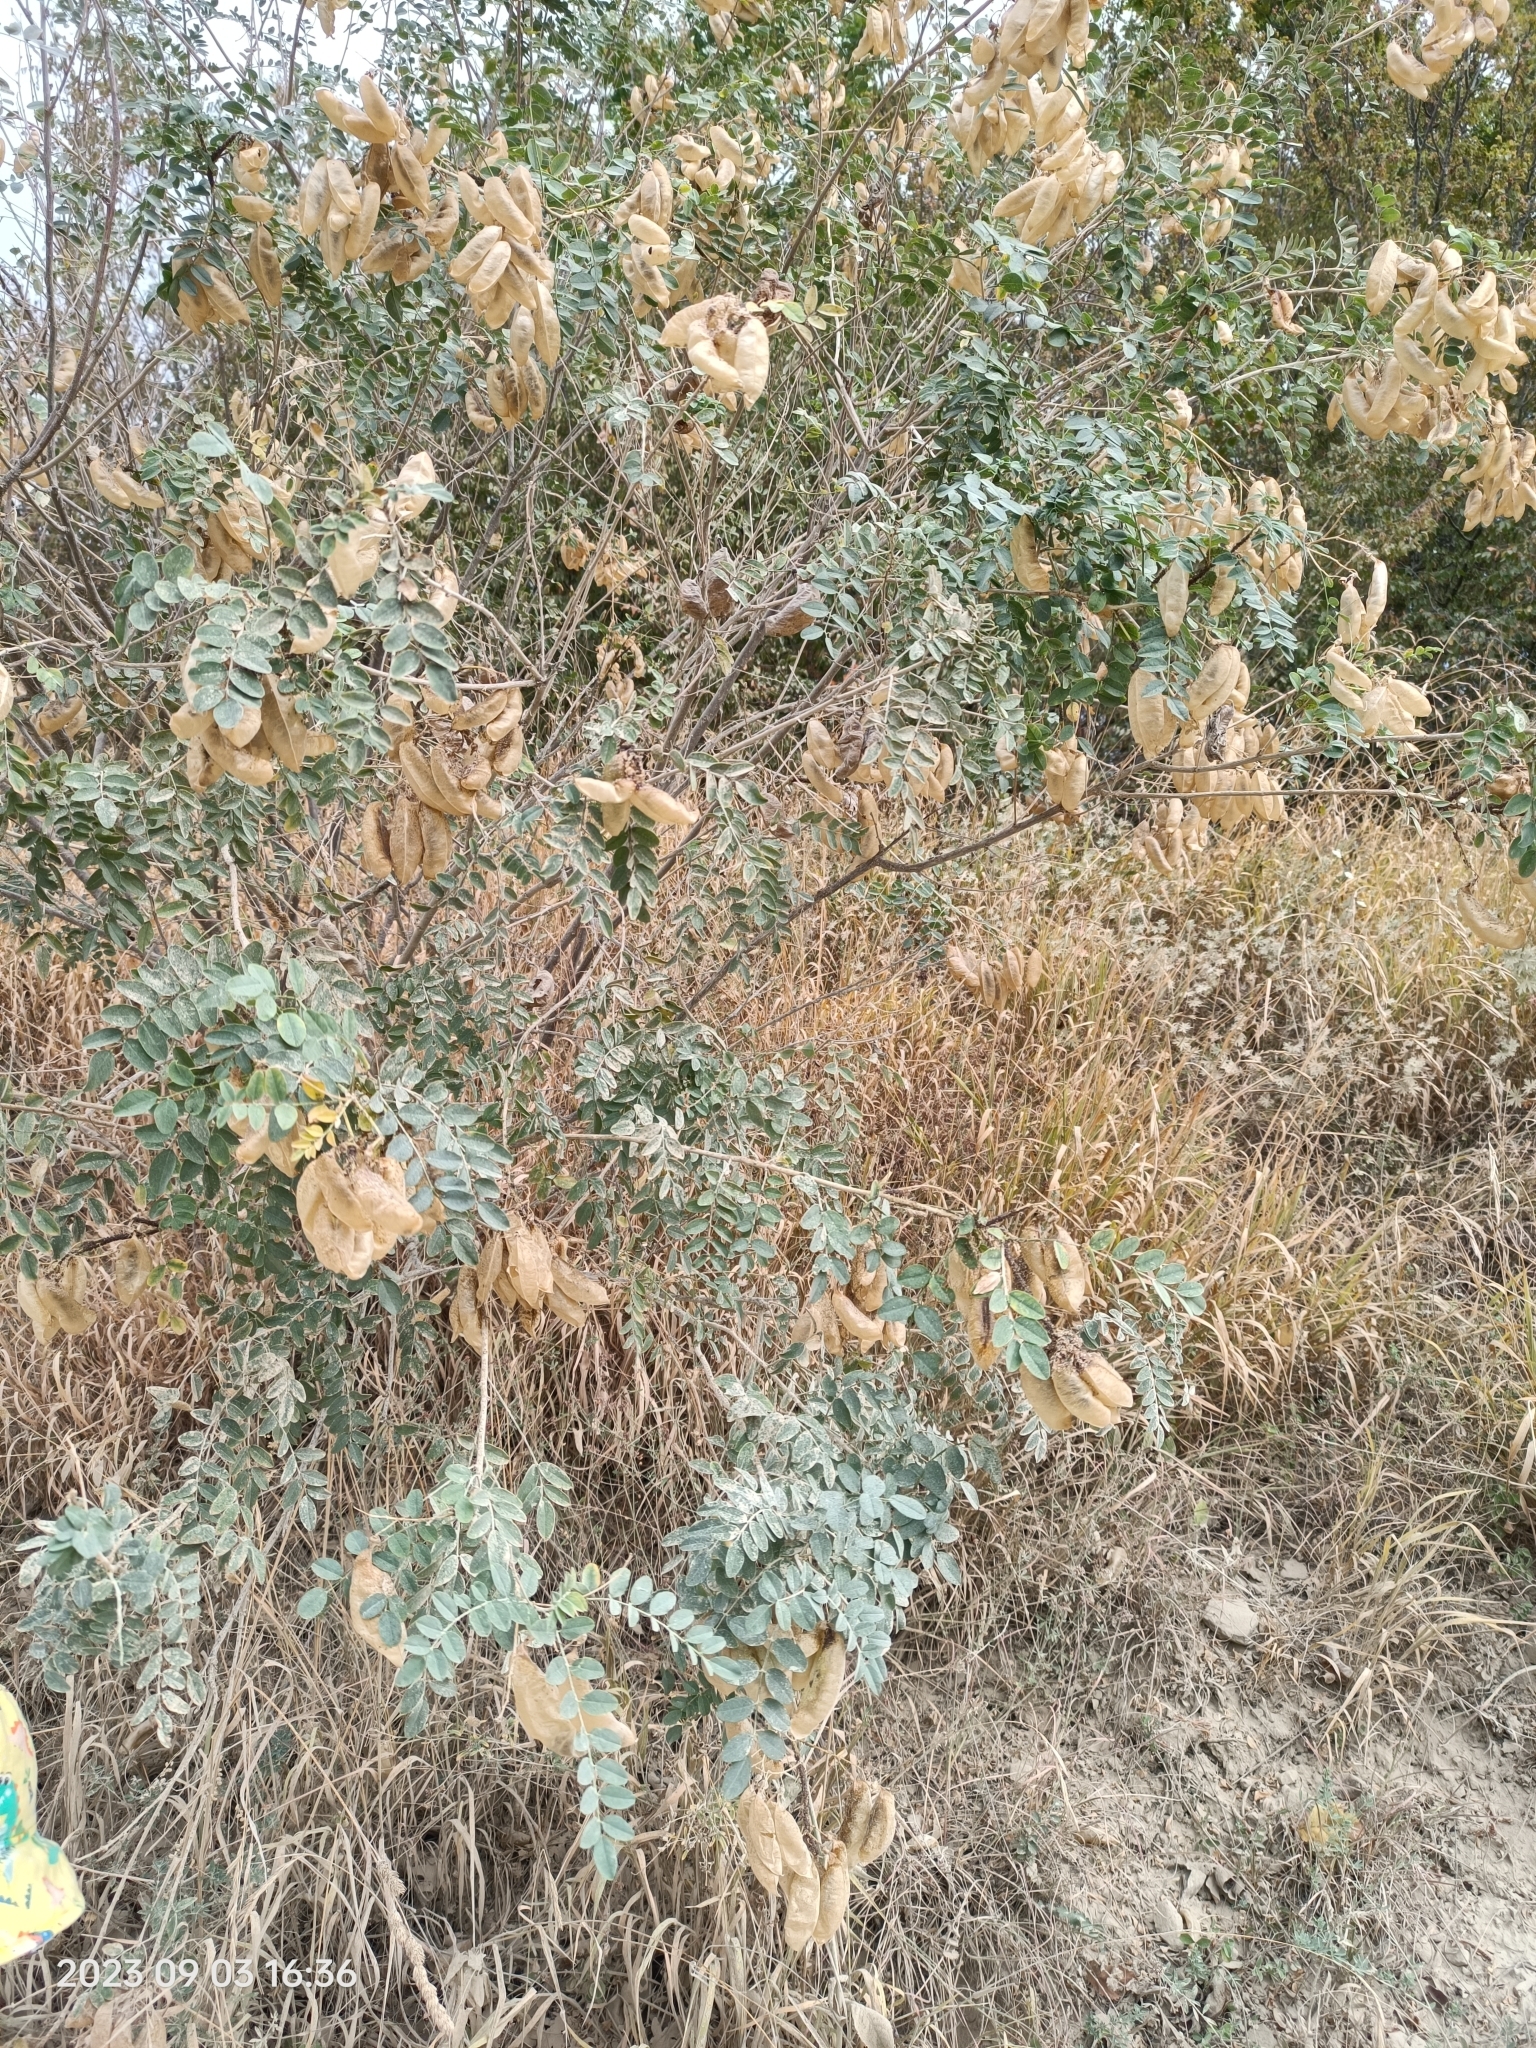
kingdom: Plantae
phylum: Tracheophyta
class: Magnoliopsida
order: Fabales
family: Fabaceae
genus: Colutea
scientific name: Colutea cilicica
